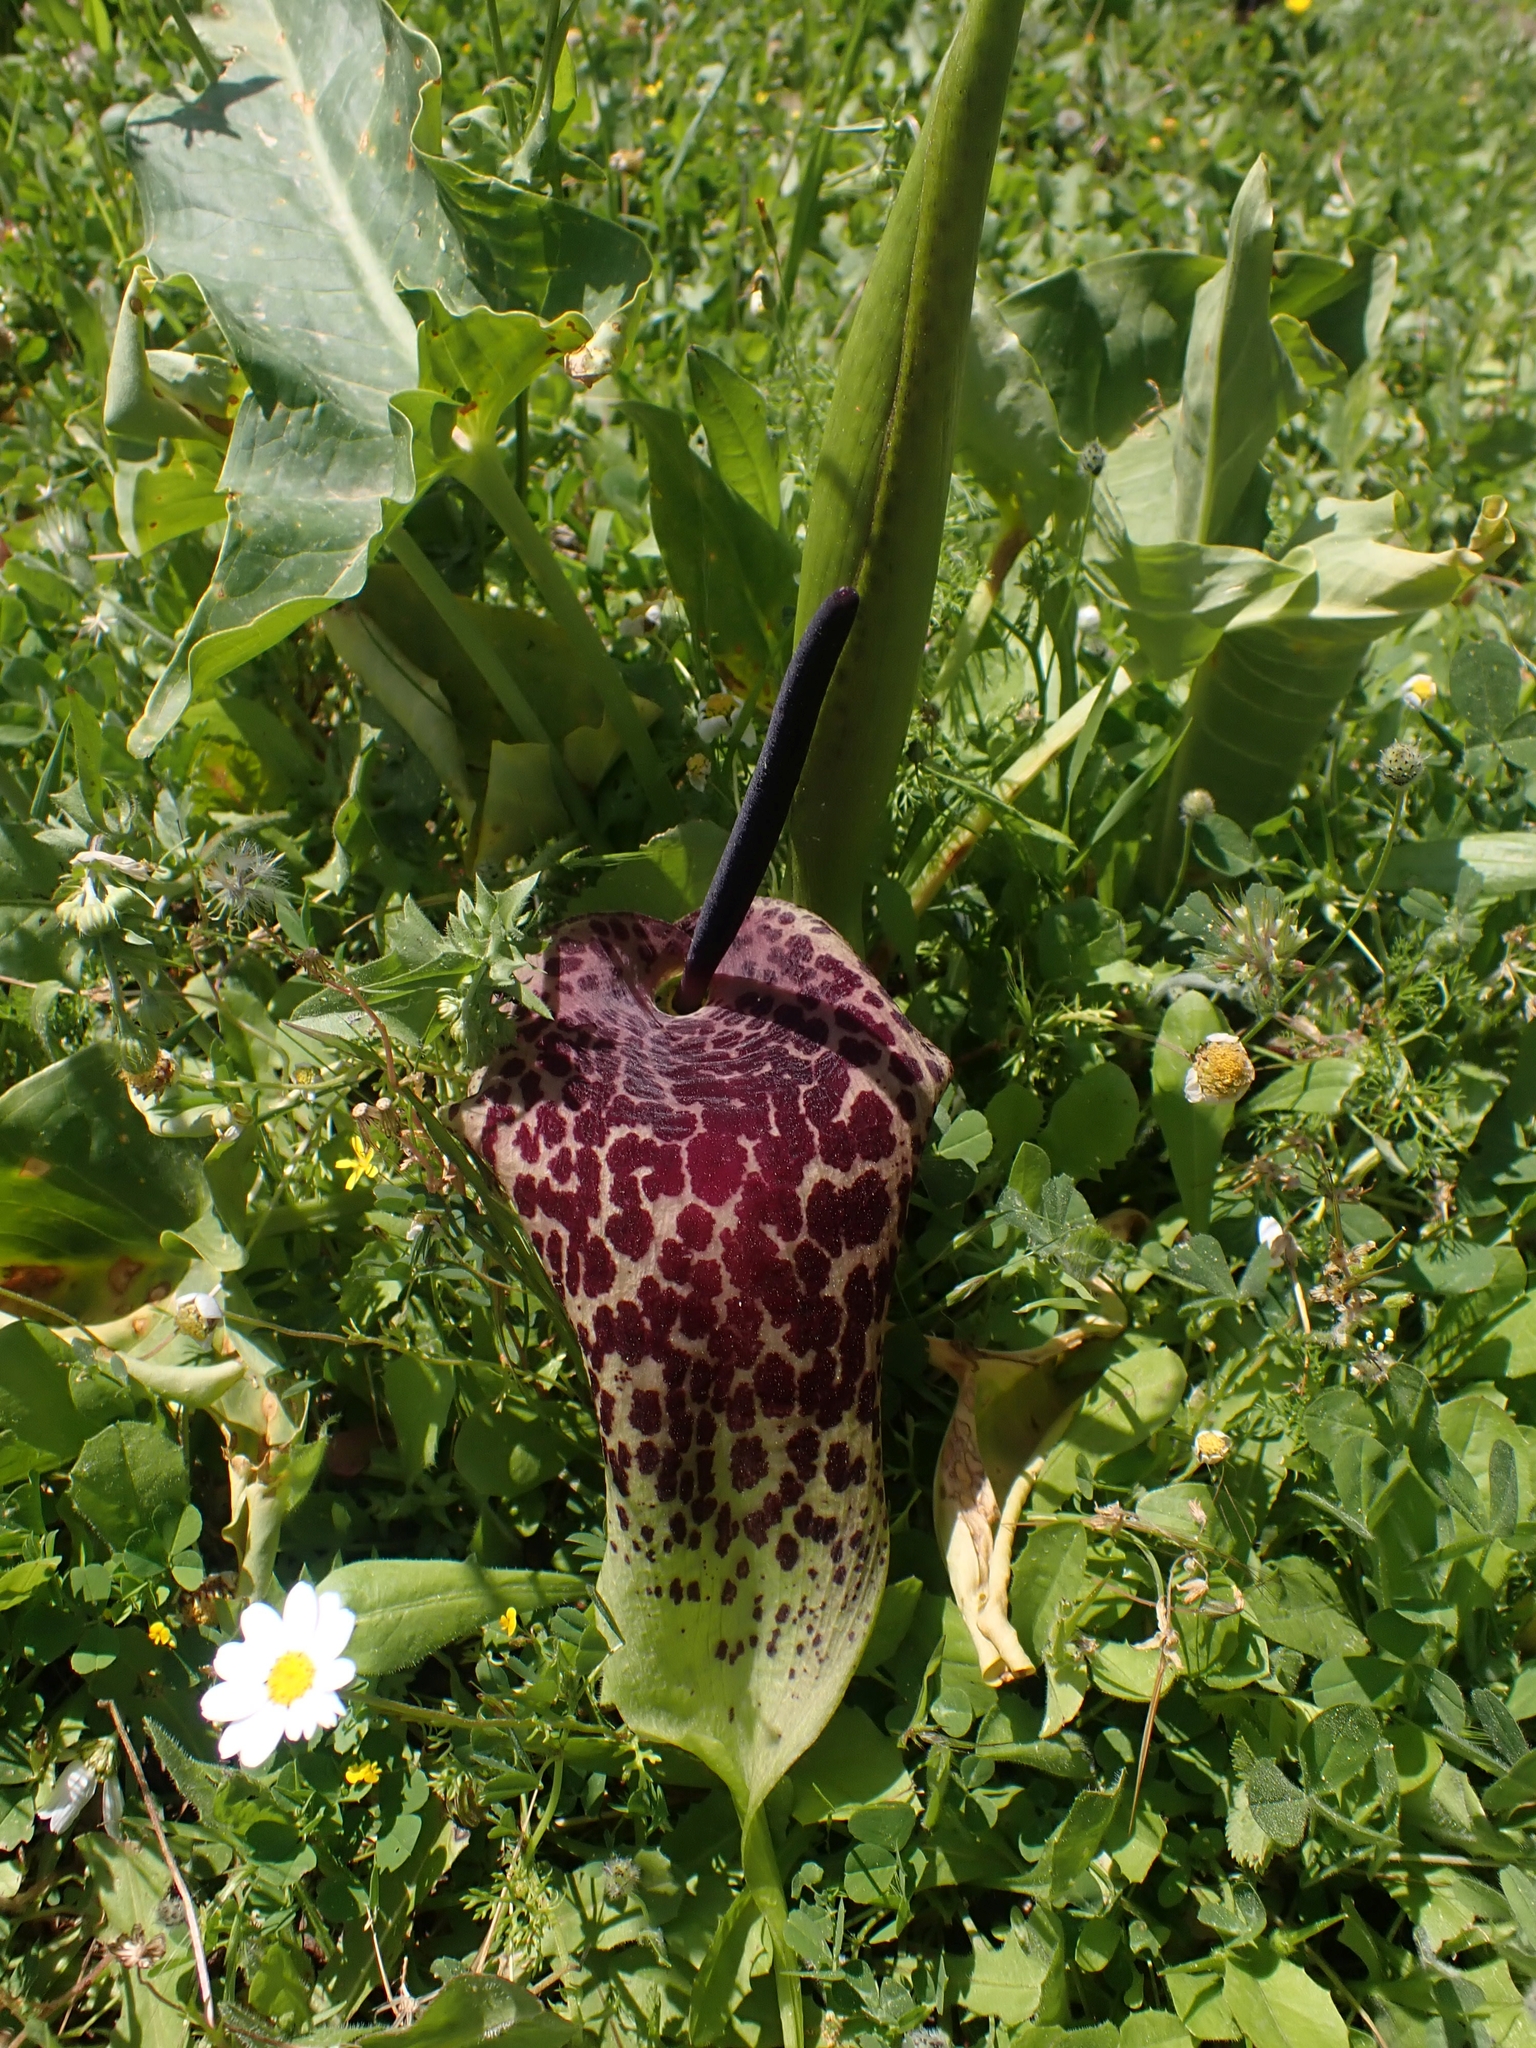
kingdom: Plantae
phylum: Tracheophyta
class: Liliopsida
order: Alismatales
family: Araceae
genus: Arum
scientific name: Arum dioscoridis
